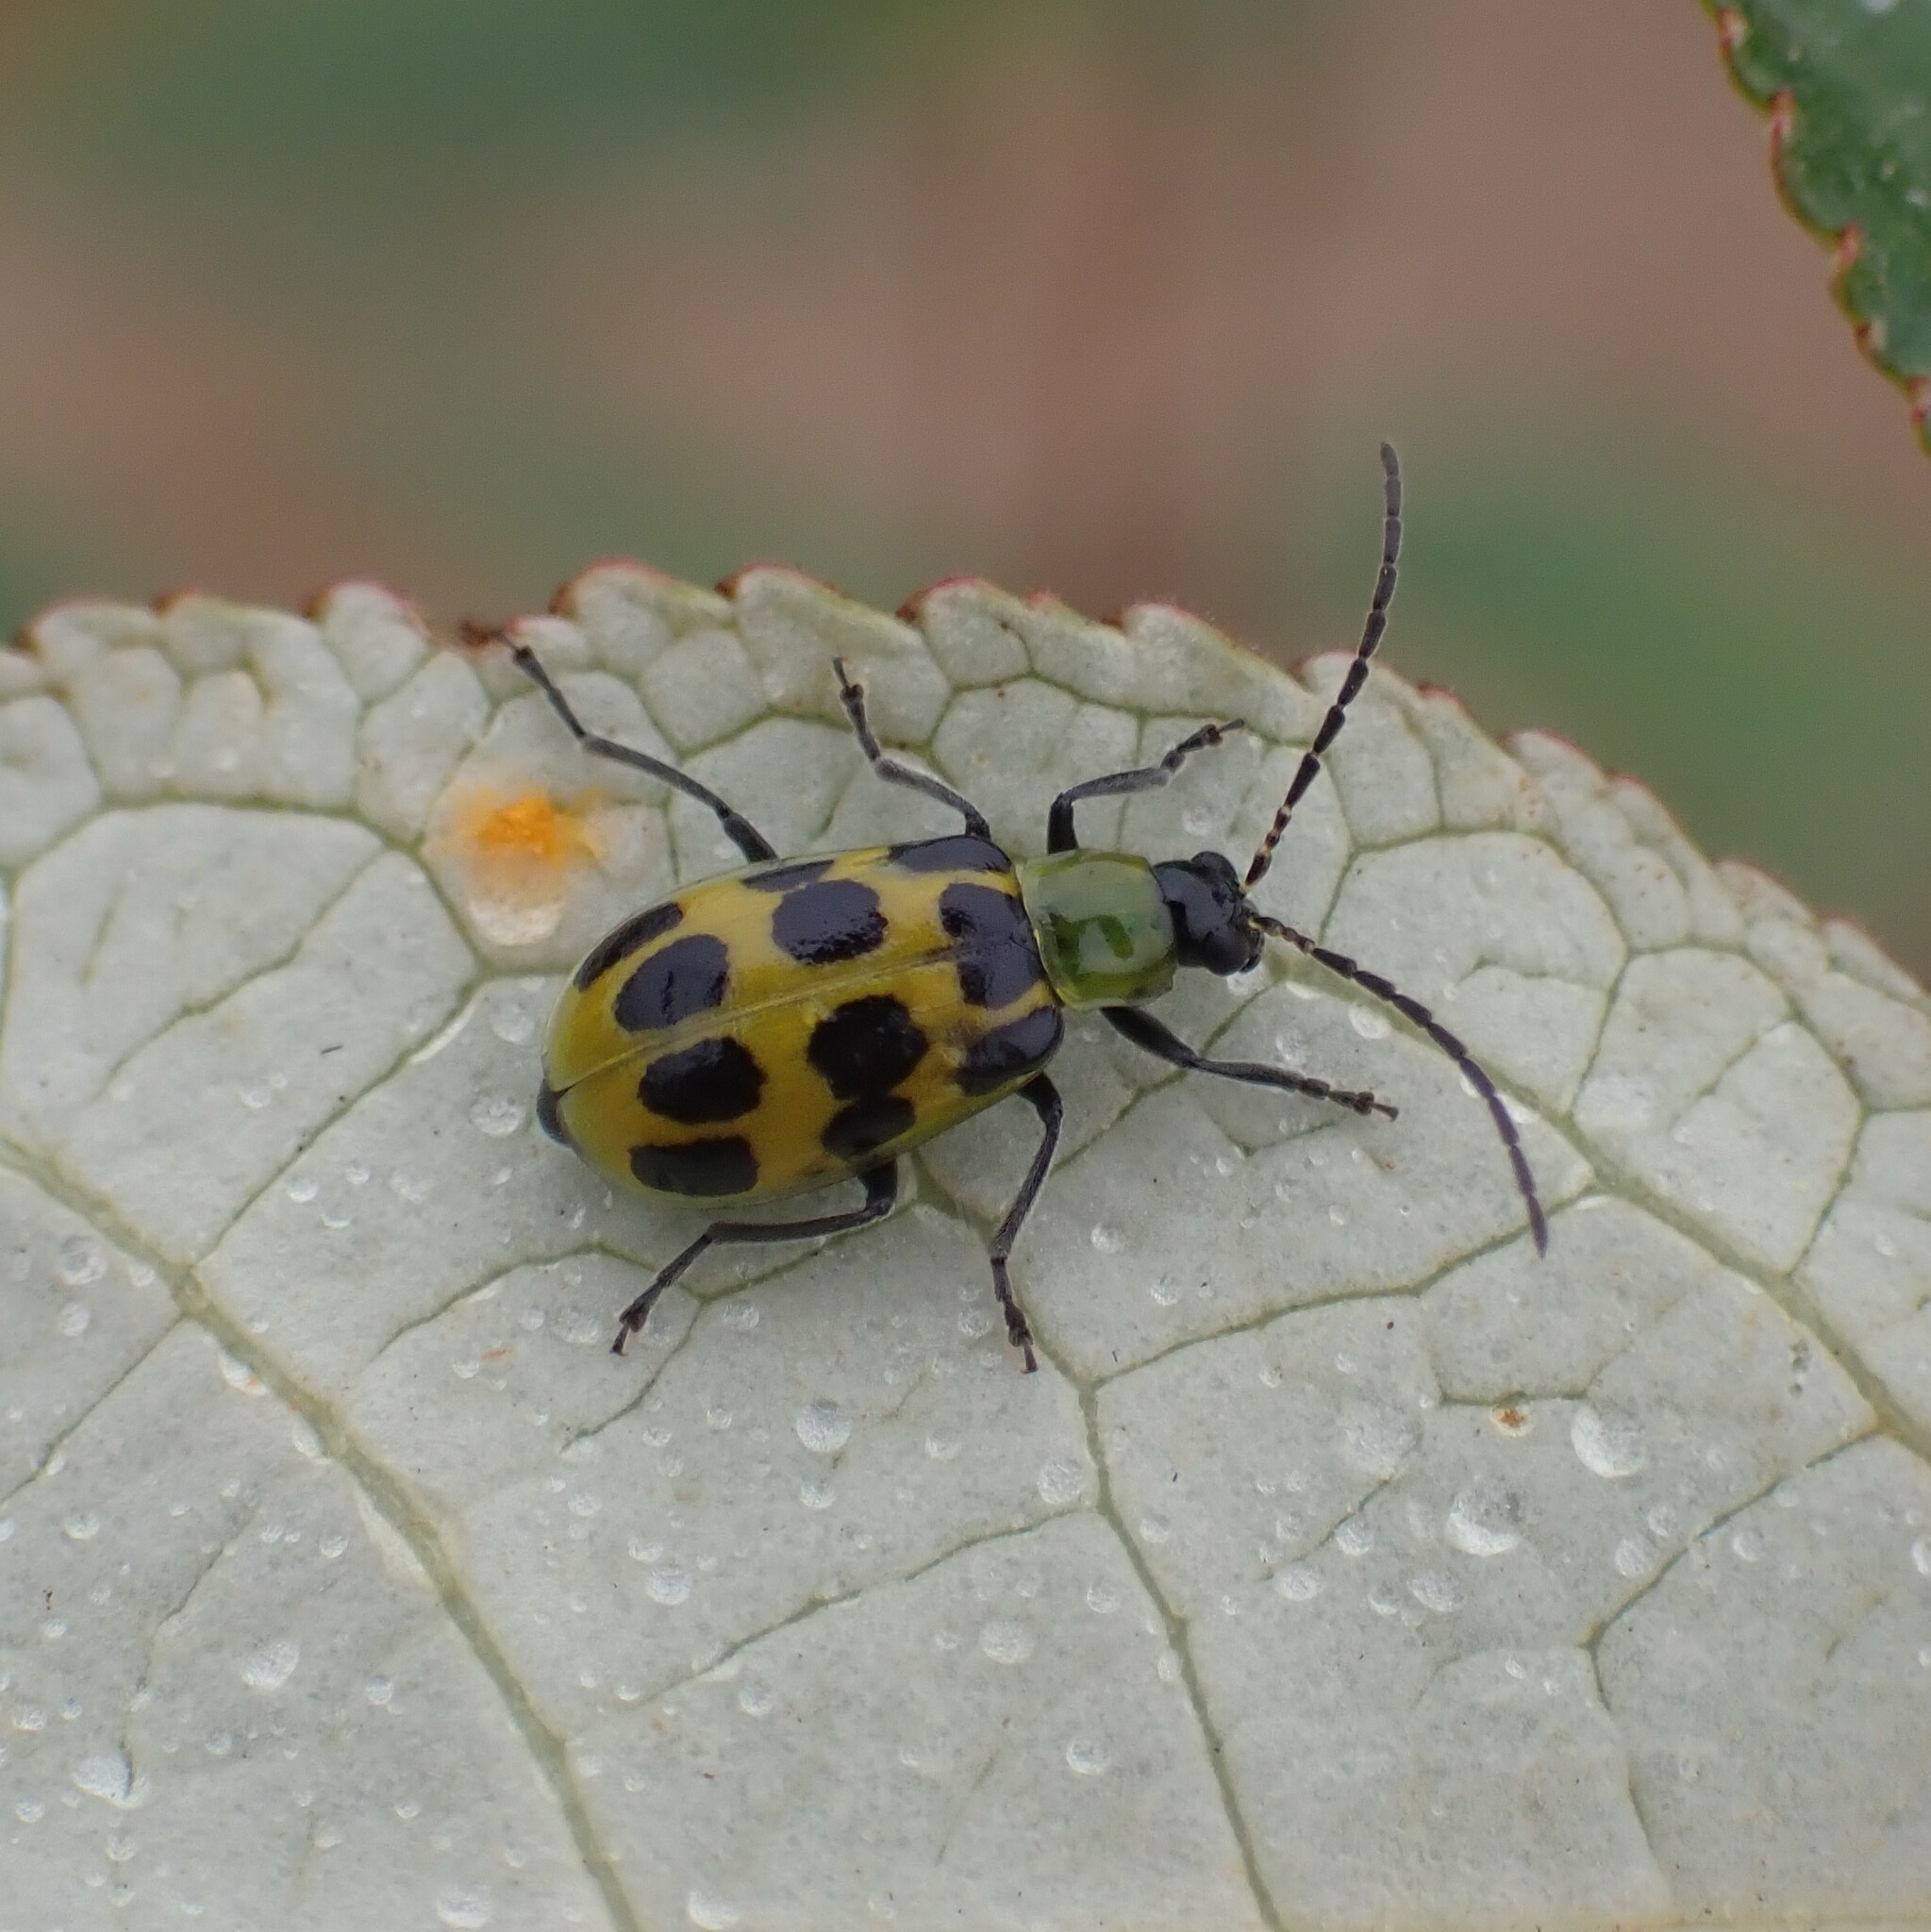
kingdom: Animalia
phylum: Arthropoda
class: Insecta
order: Coleoptera
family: Chrysomelidae
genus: Diabrotica
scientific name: Diabrotica undecimpunctata
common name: Spotted cucumber beetle
